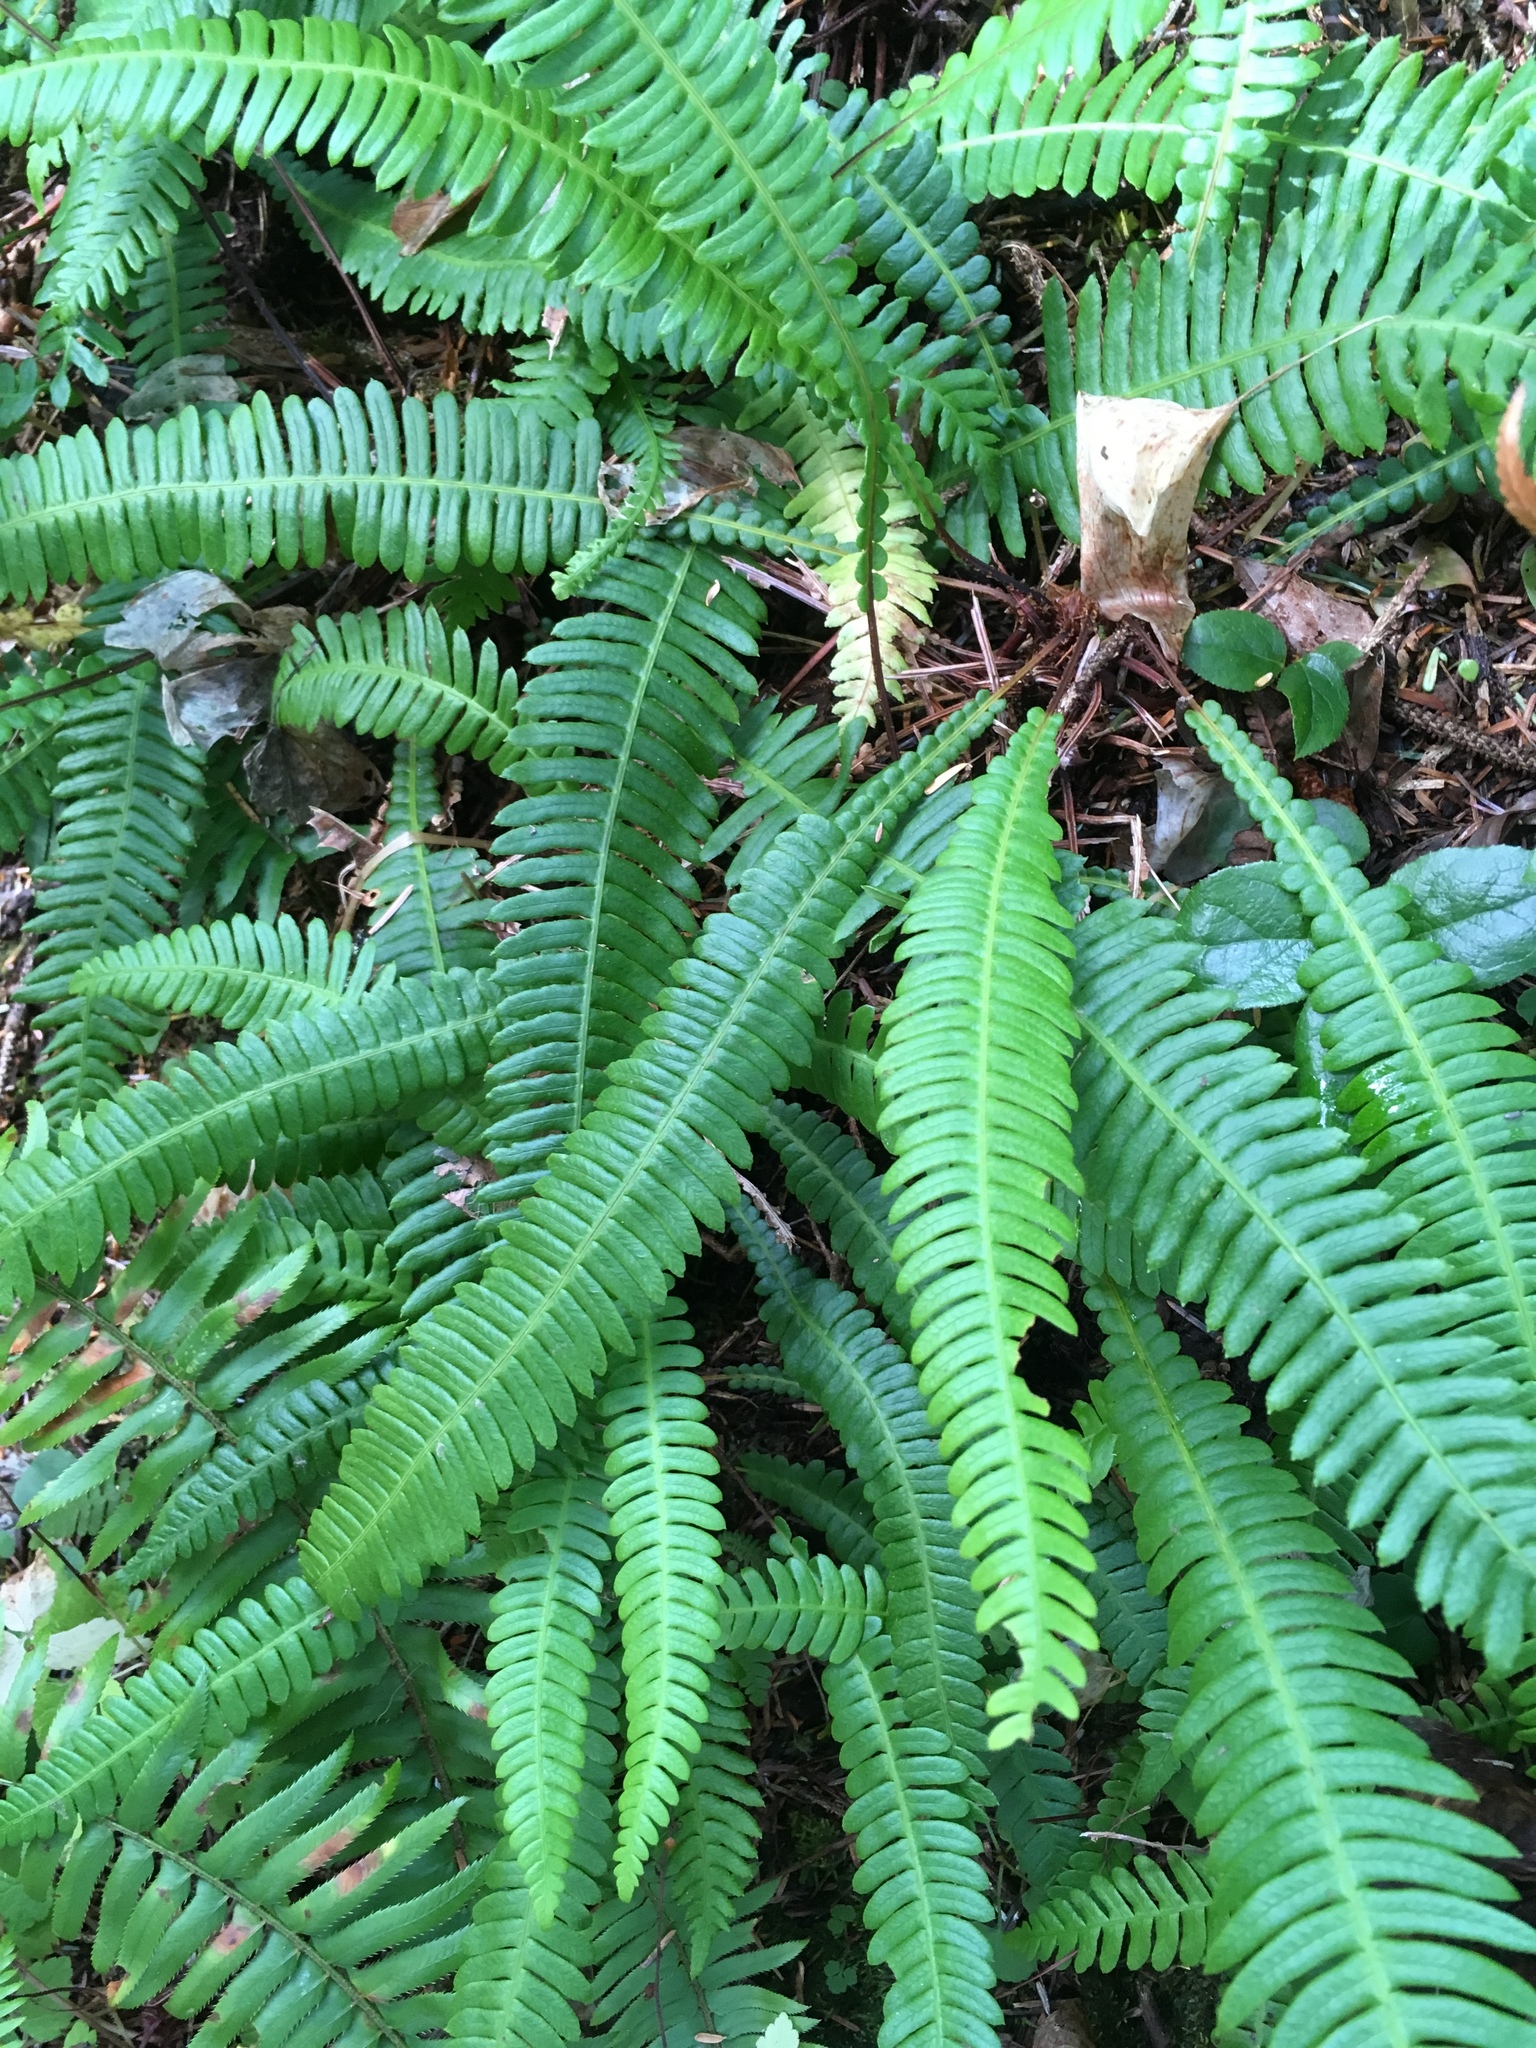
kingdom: Plantae
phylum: Tracheophyta
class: Polypodiopsida
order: Polypodiales
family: Blechnaceae
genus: Struthiopteris
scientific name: Struthiopteris spicant
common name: Deer fern
